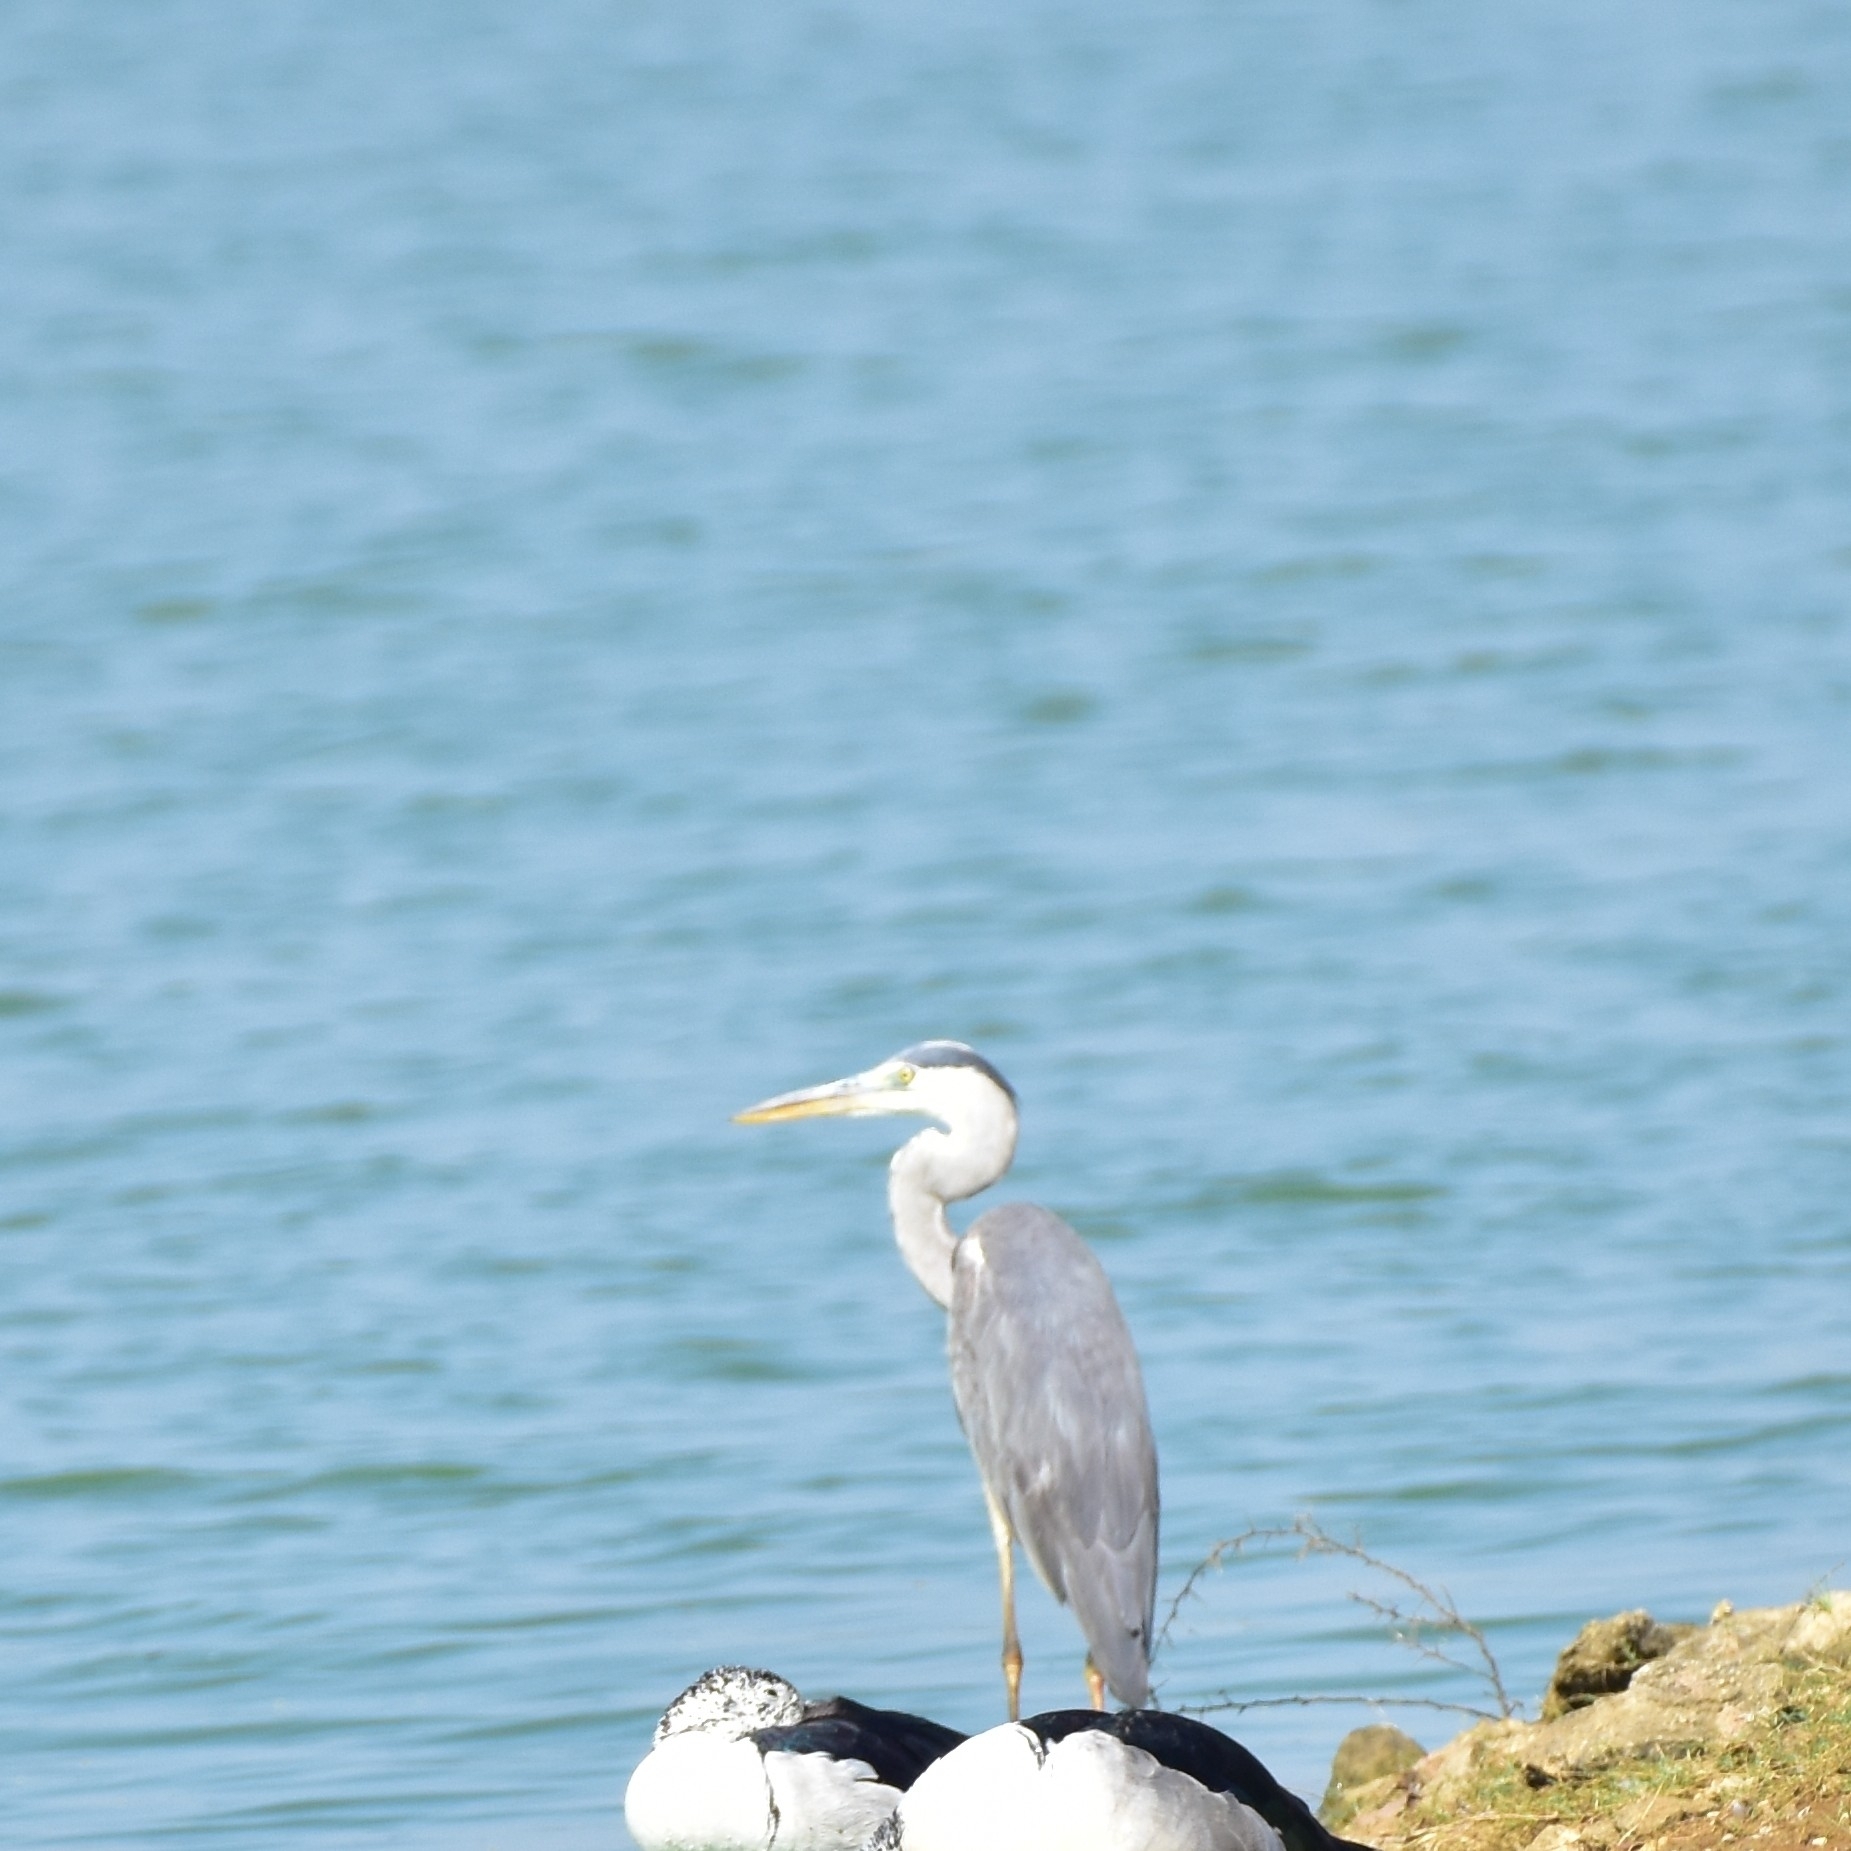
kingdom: Animalia
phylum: Chordata
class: Aves
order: Pelecaniformes
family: Ardeidae
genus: Ardea
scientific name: Ardea cinerea
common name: Grey heron
